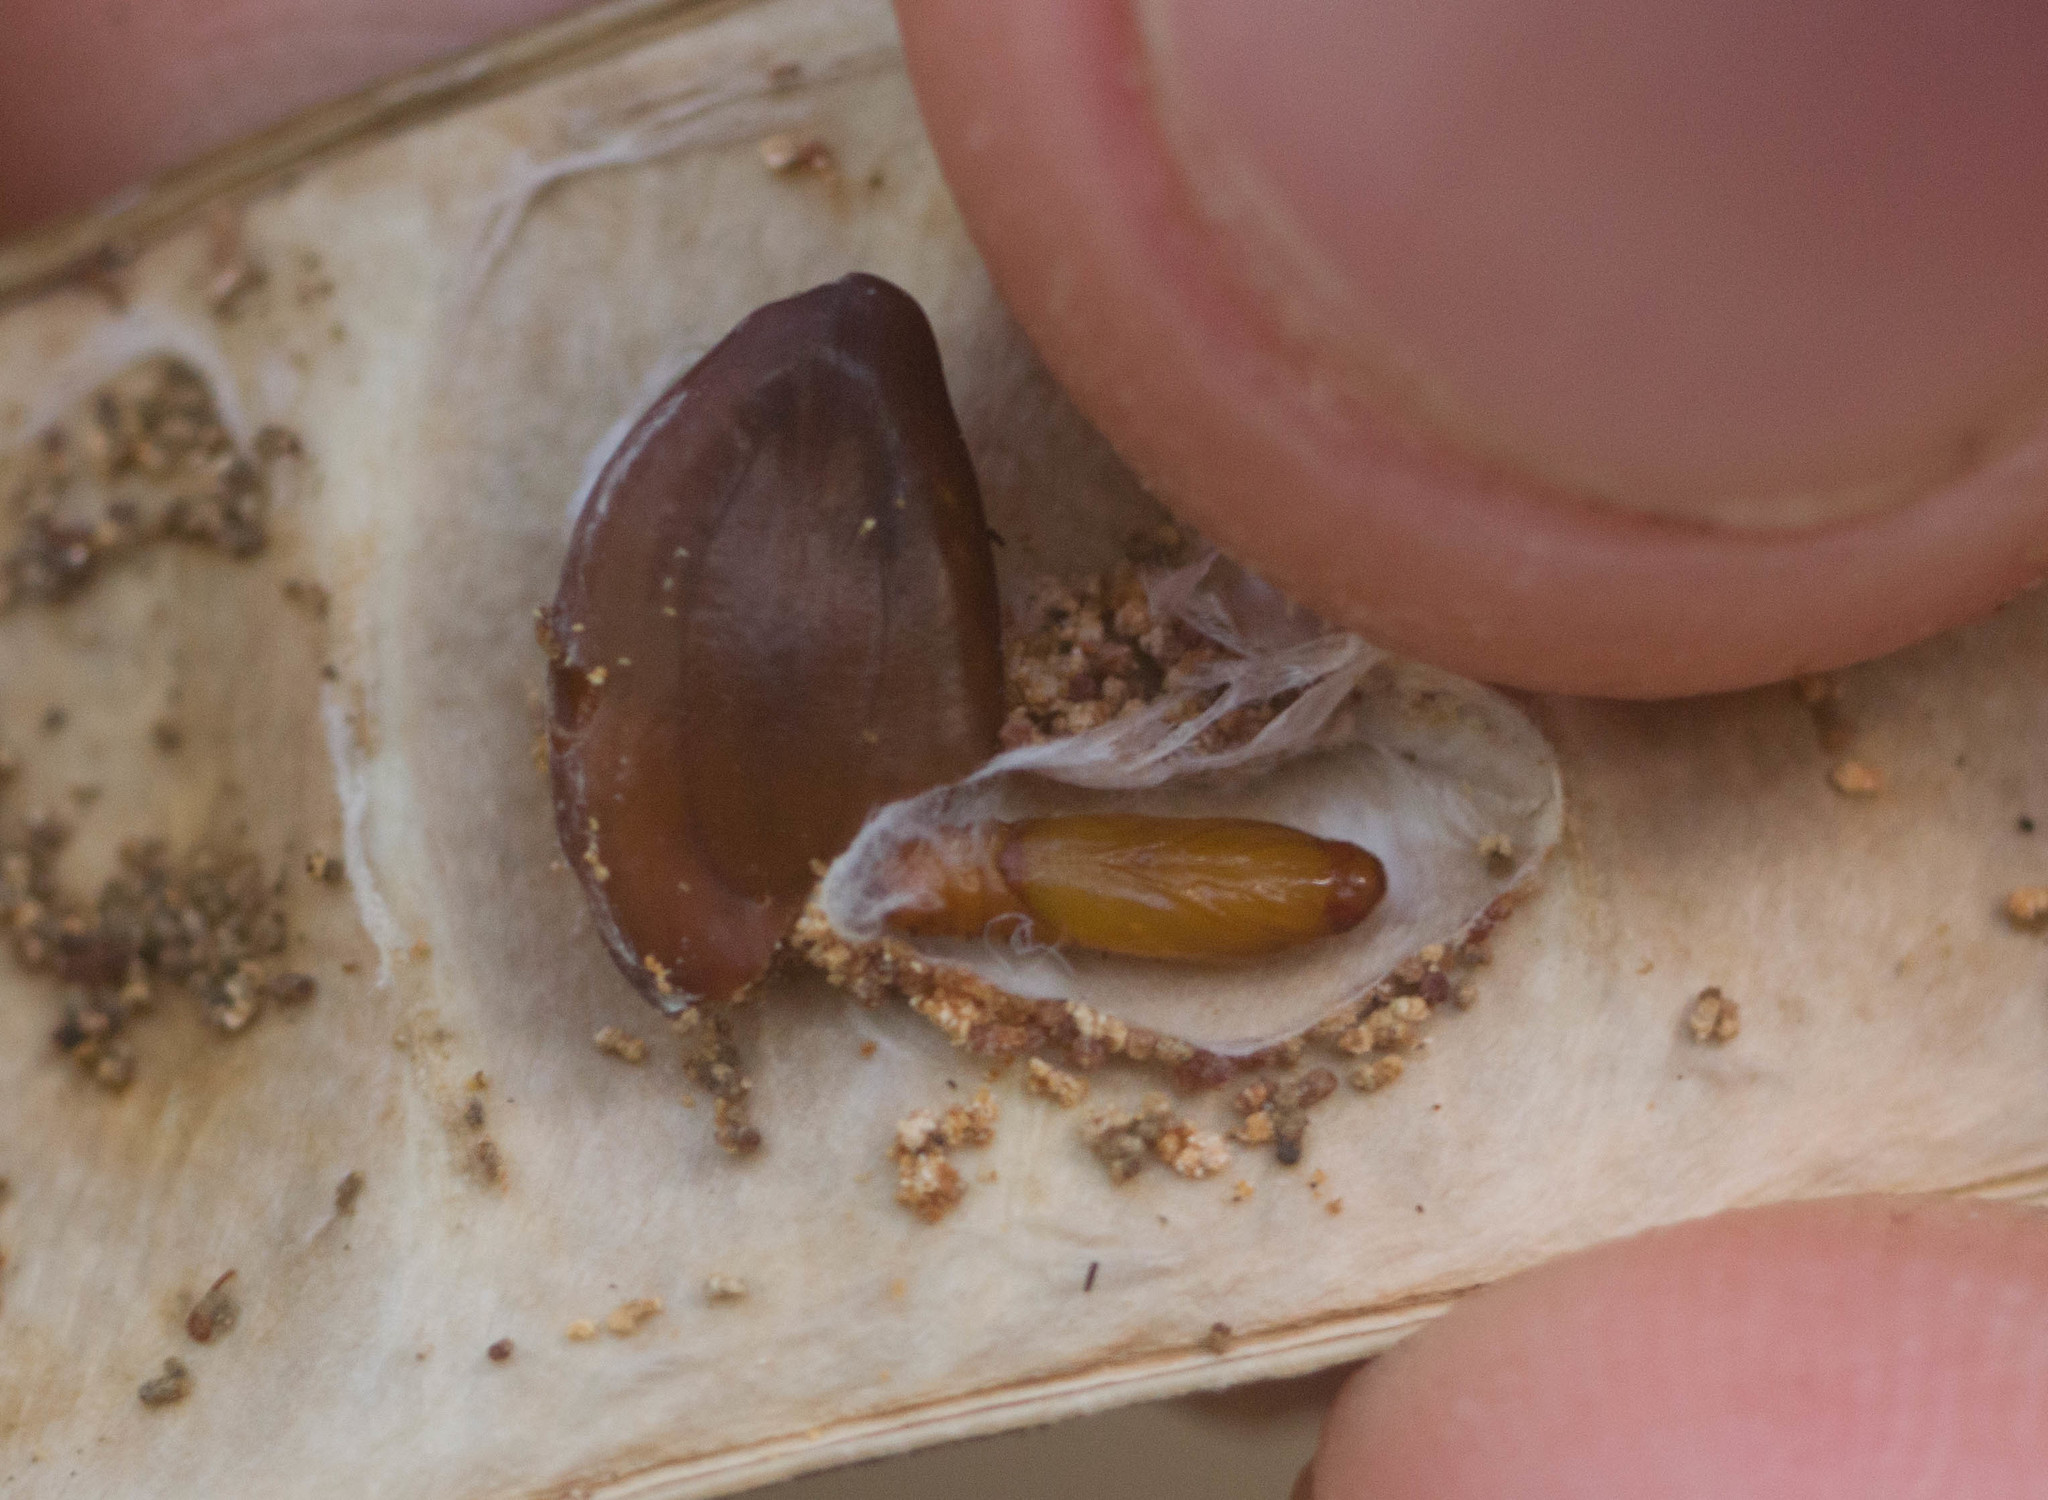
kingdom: Animalia
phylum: Arthropoda
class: Insecta
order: Lepidoptera
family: Gelechiidae
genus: Mesophleps
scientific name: Mesophleps adustipennis
